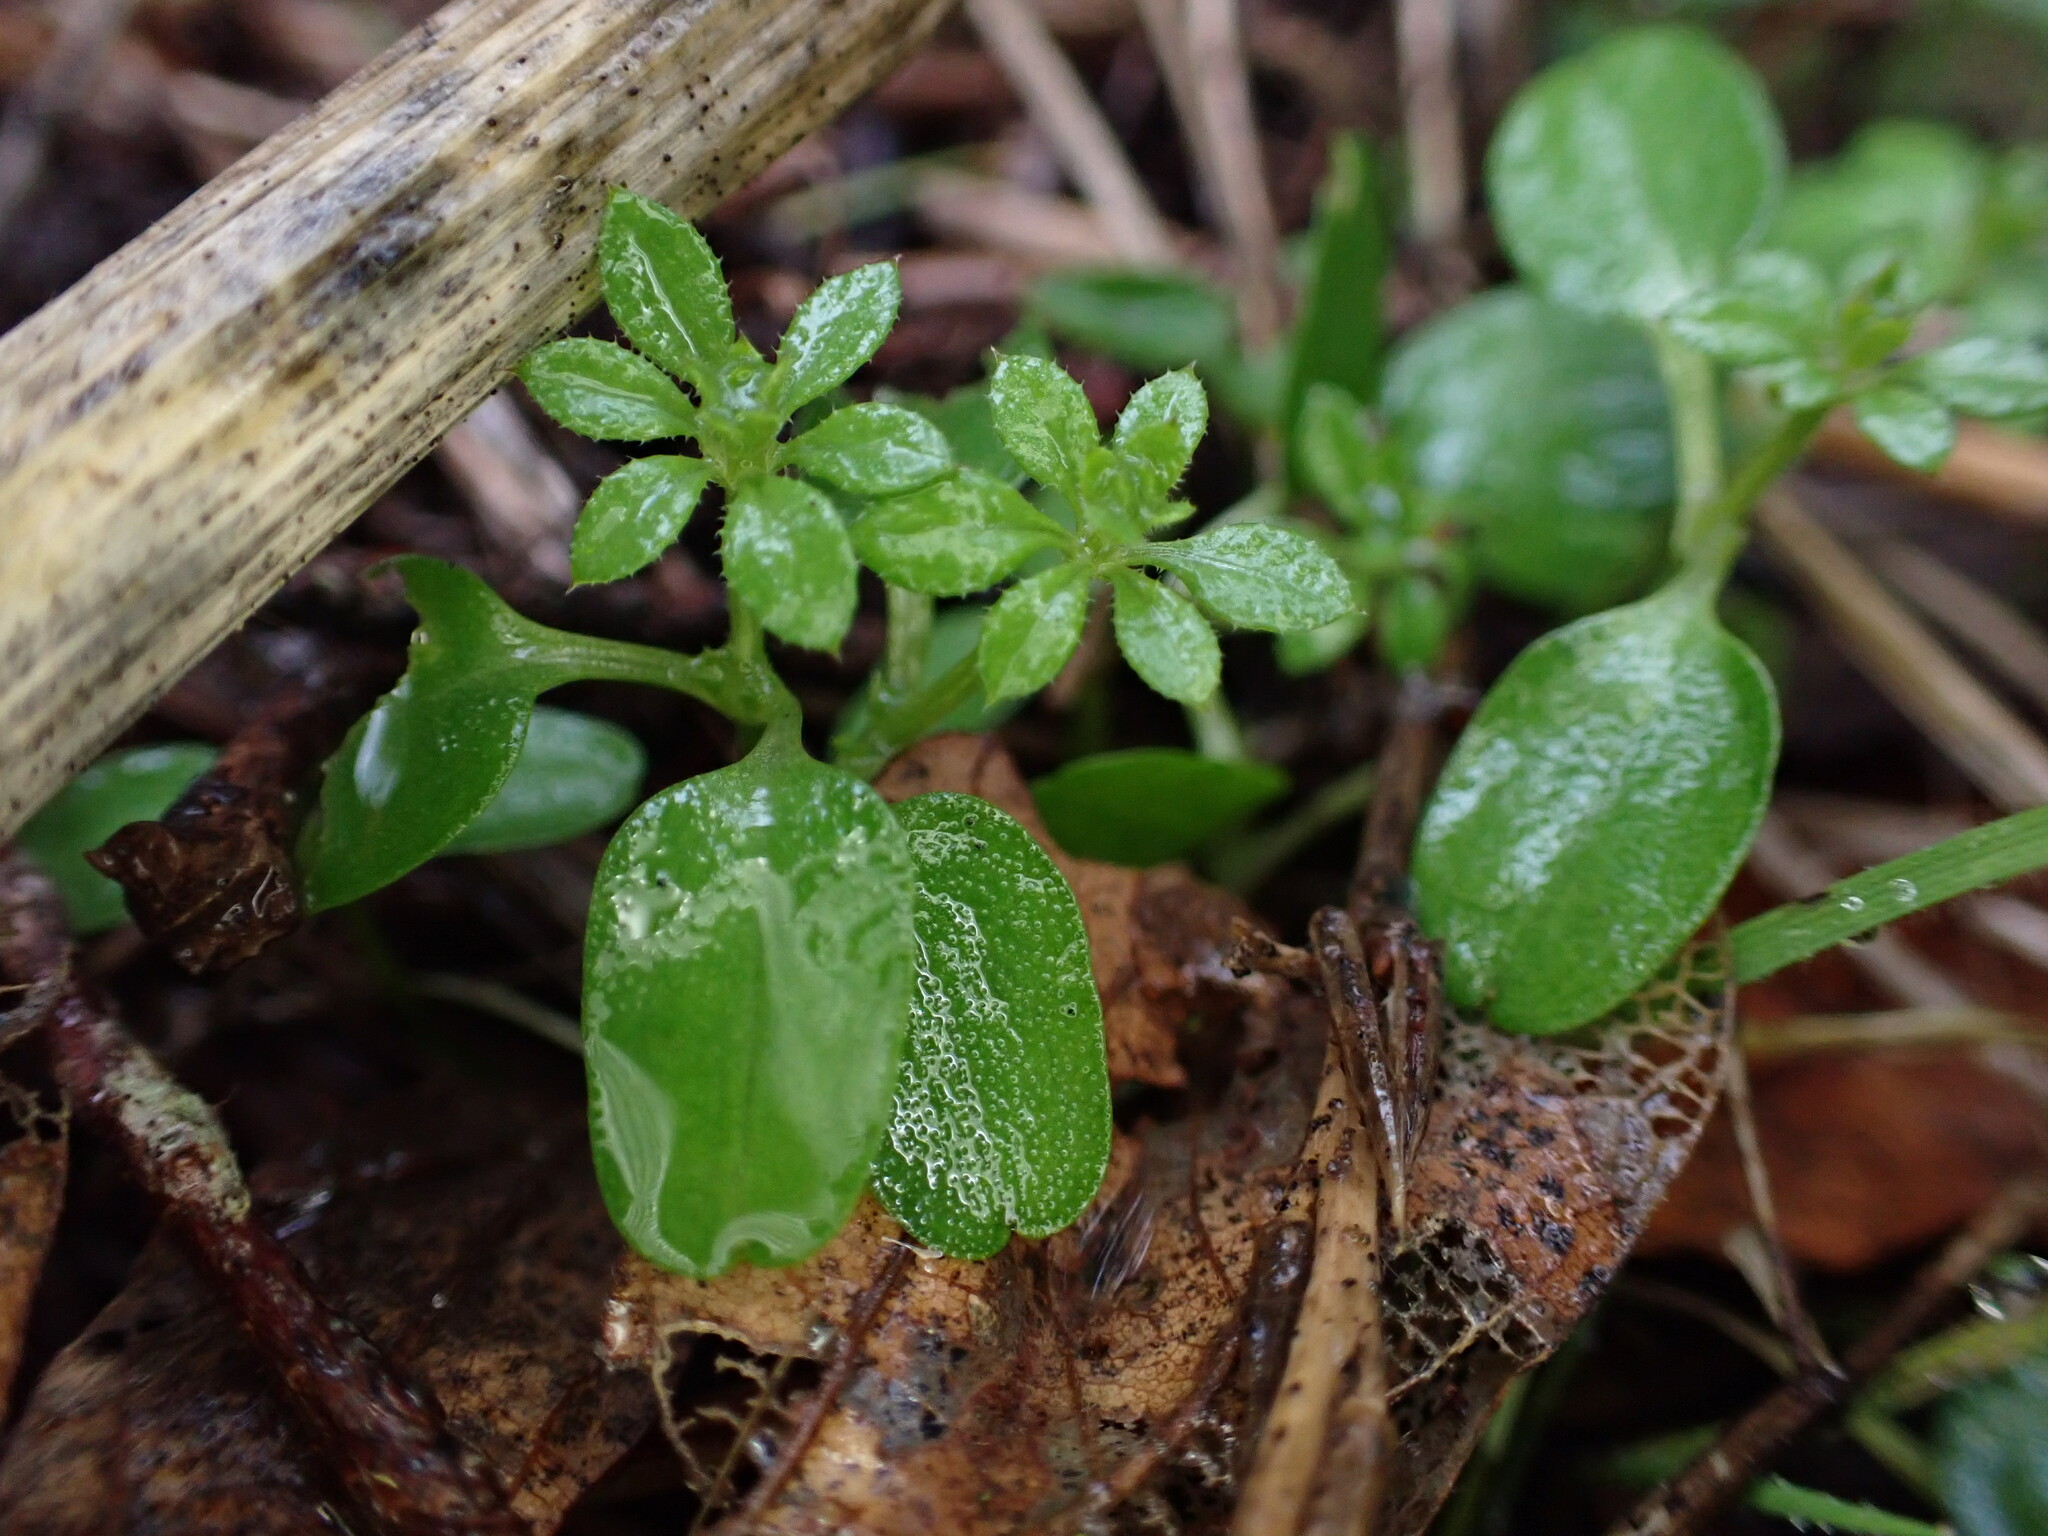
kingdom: Plantae
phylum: Tracheophyta
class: Magnoliopsida
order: Gentianales
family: Rubiaceae
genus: Galium
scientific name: Galium aparine
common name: Cleavers
